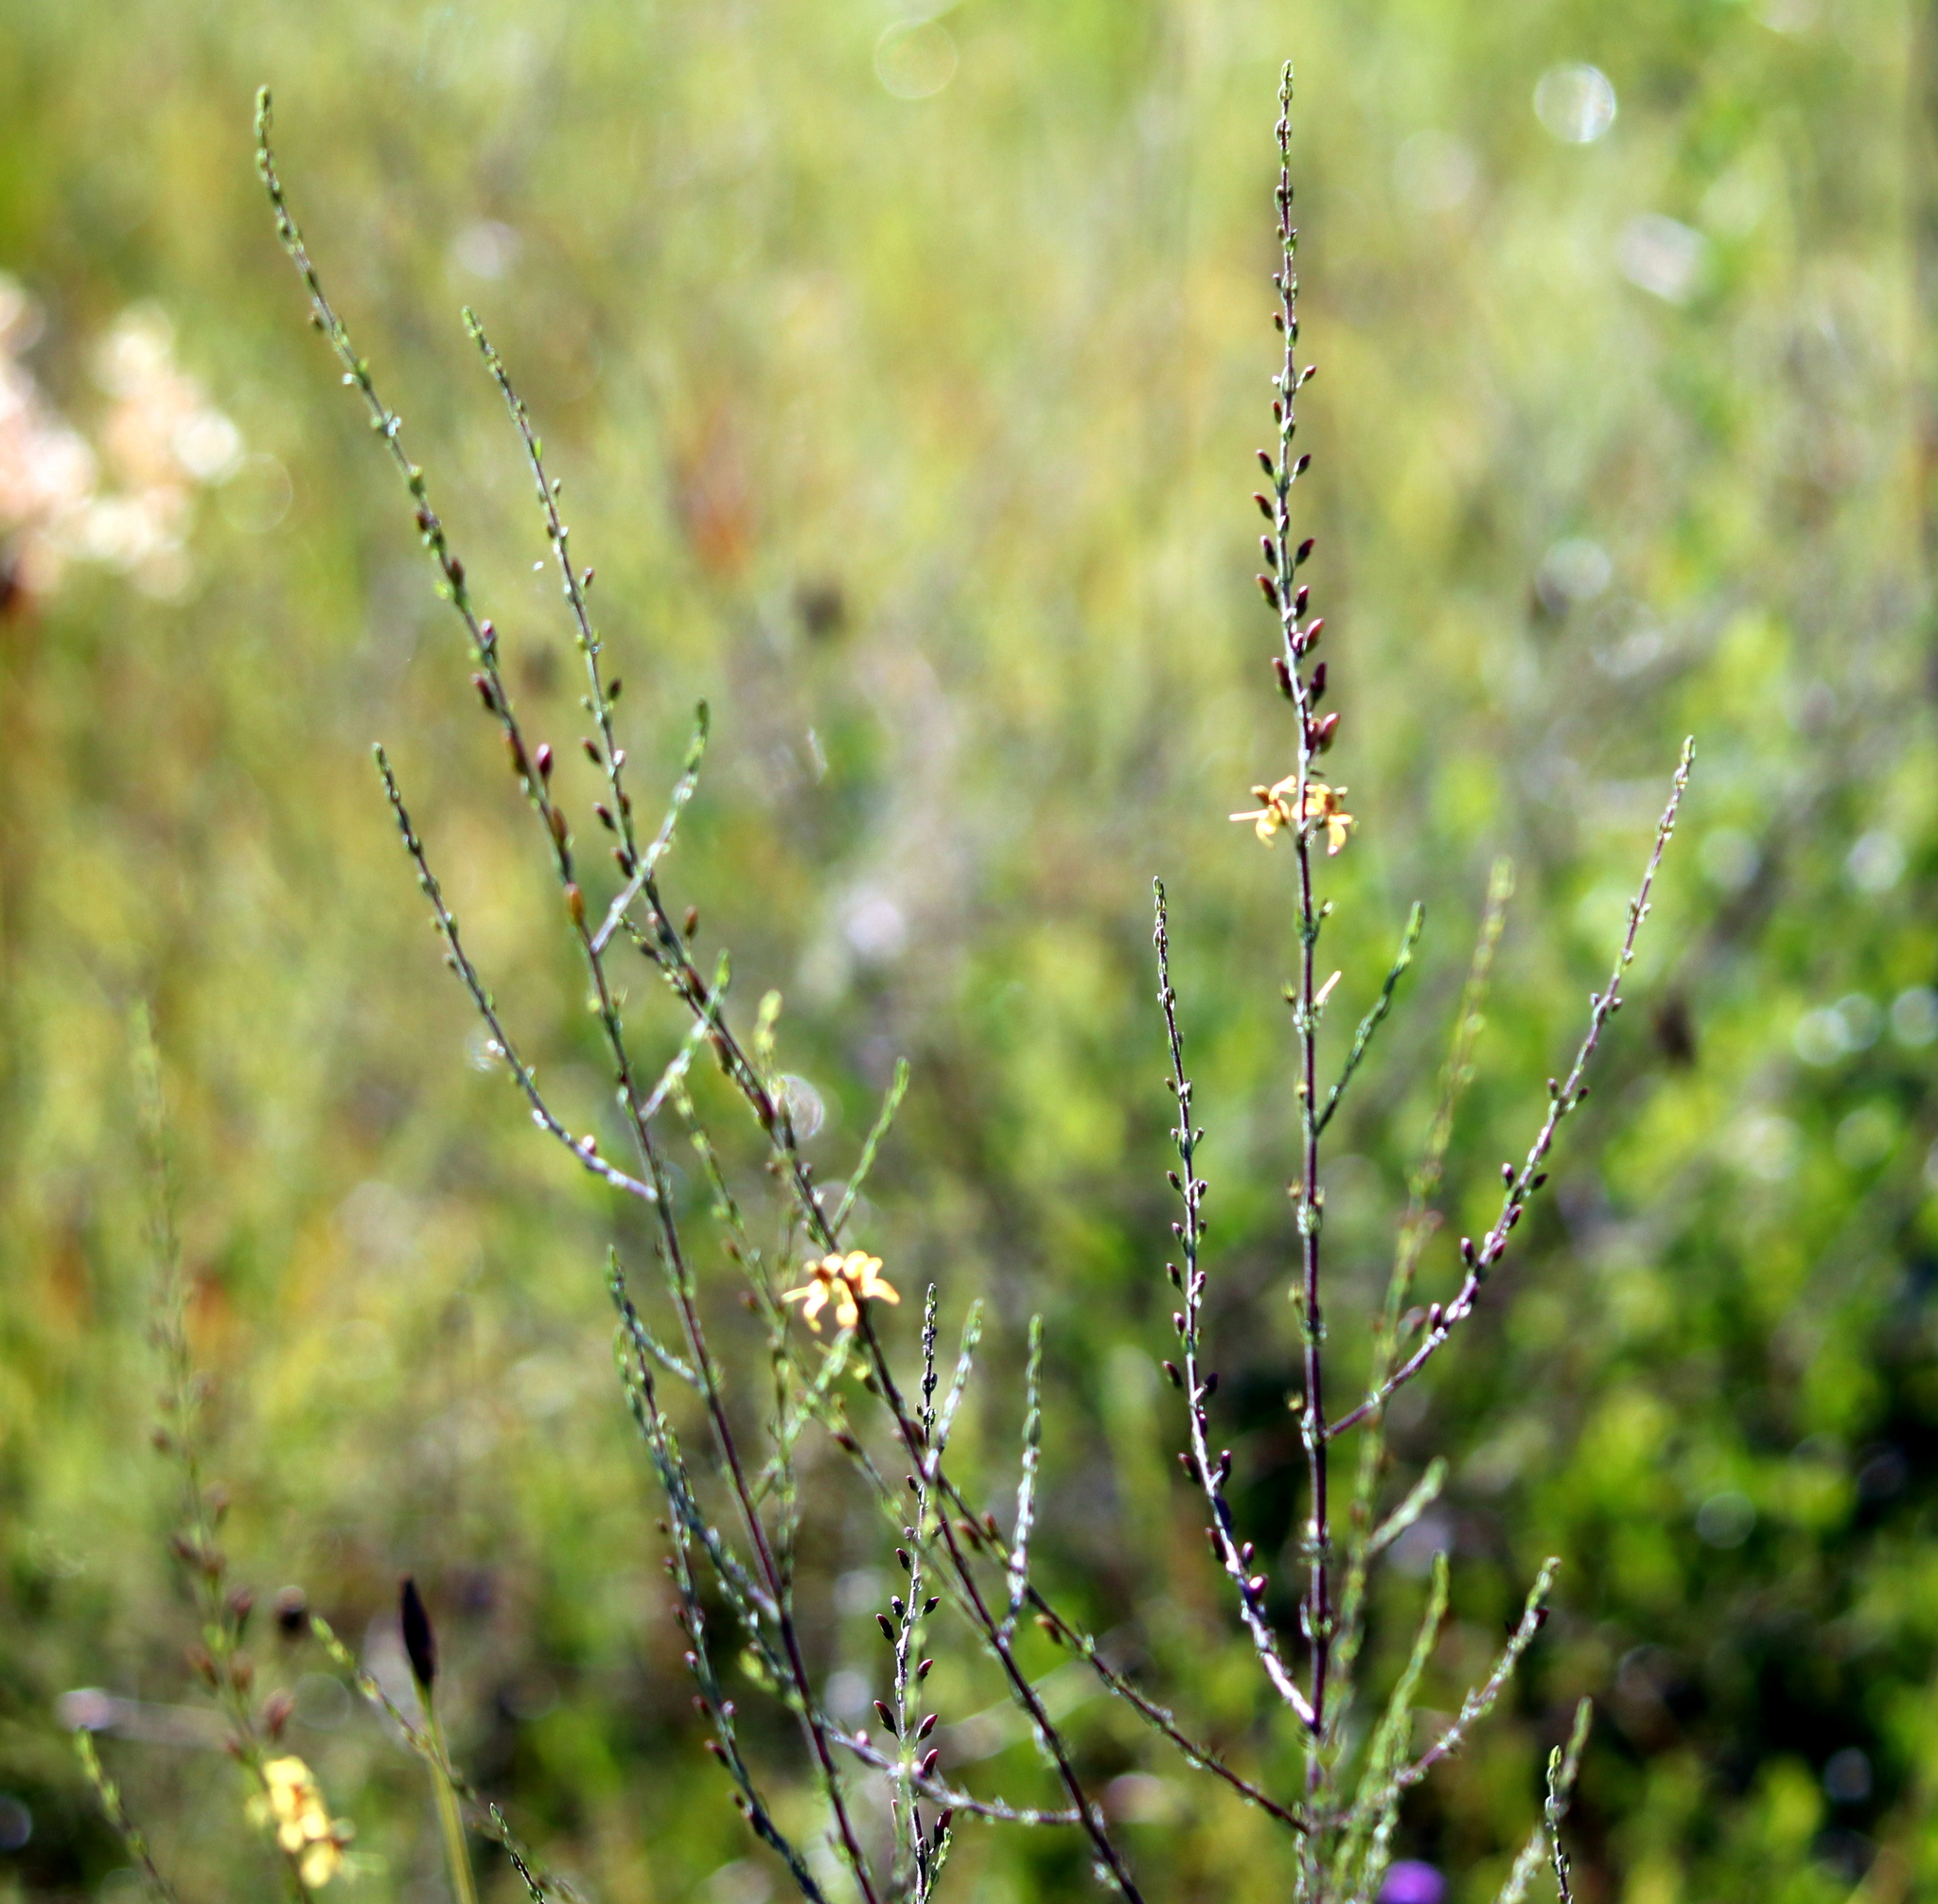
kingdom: Plantae
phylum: Tracheophyta
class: Magnoliopsida
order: Lamiales
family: Orobanchaceae
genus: Seymeria
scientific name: Seymeria cassioides
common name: Yaupon black-senna
